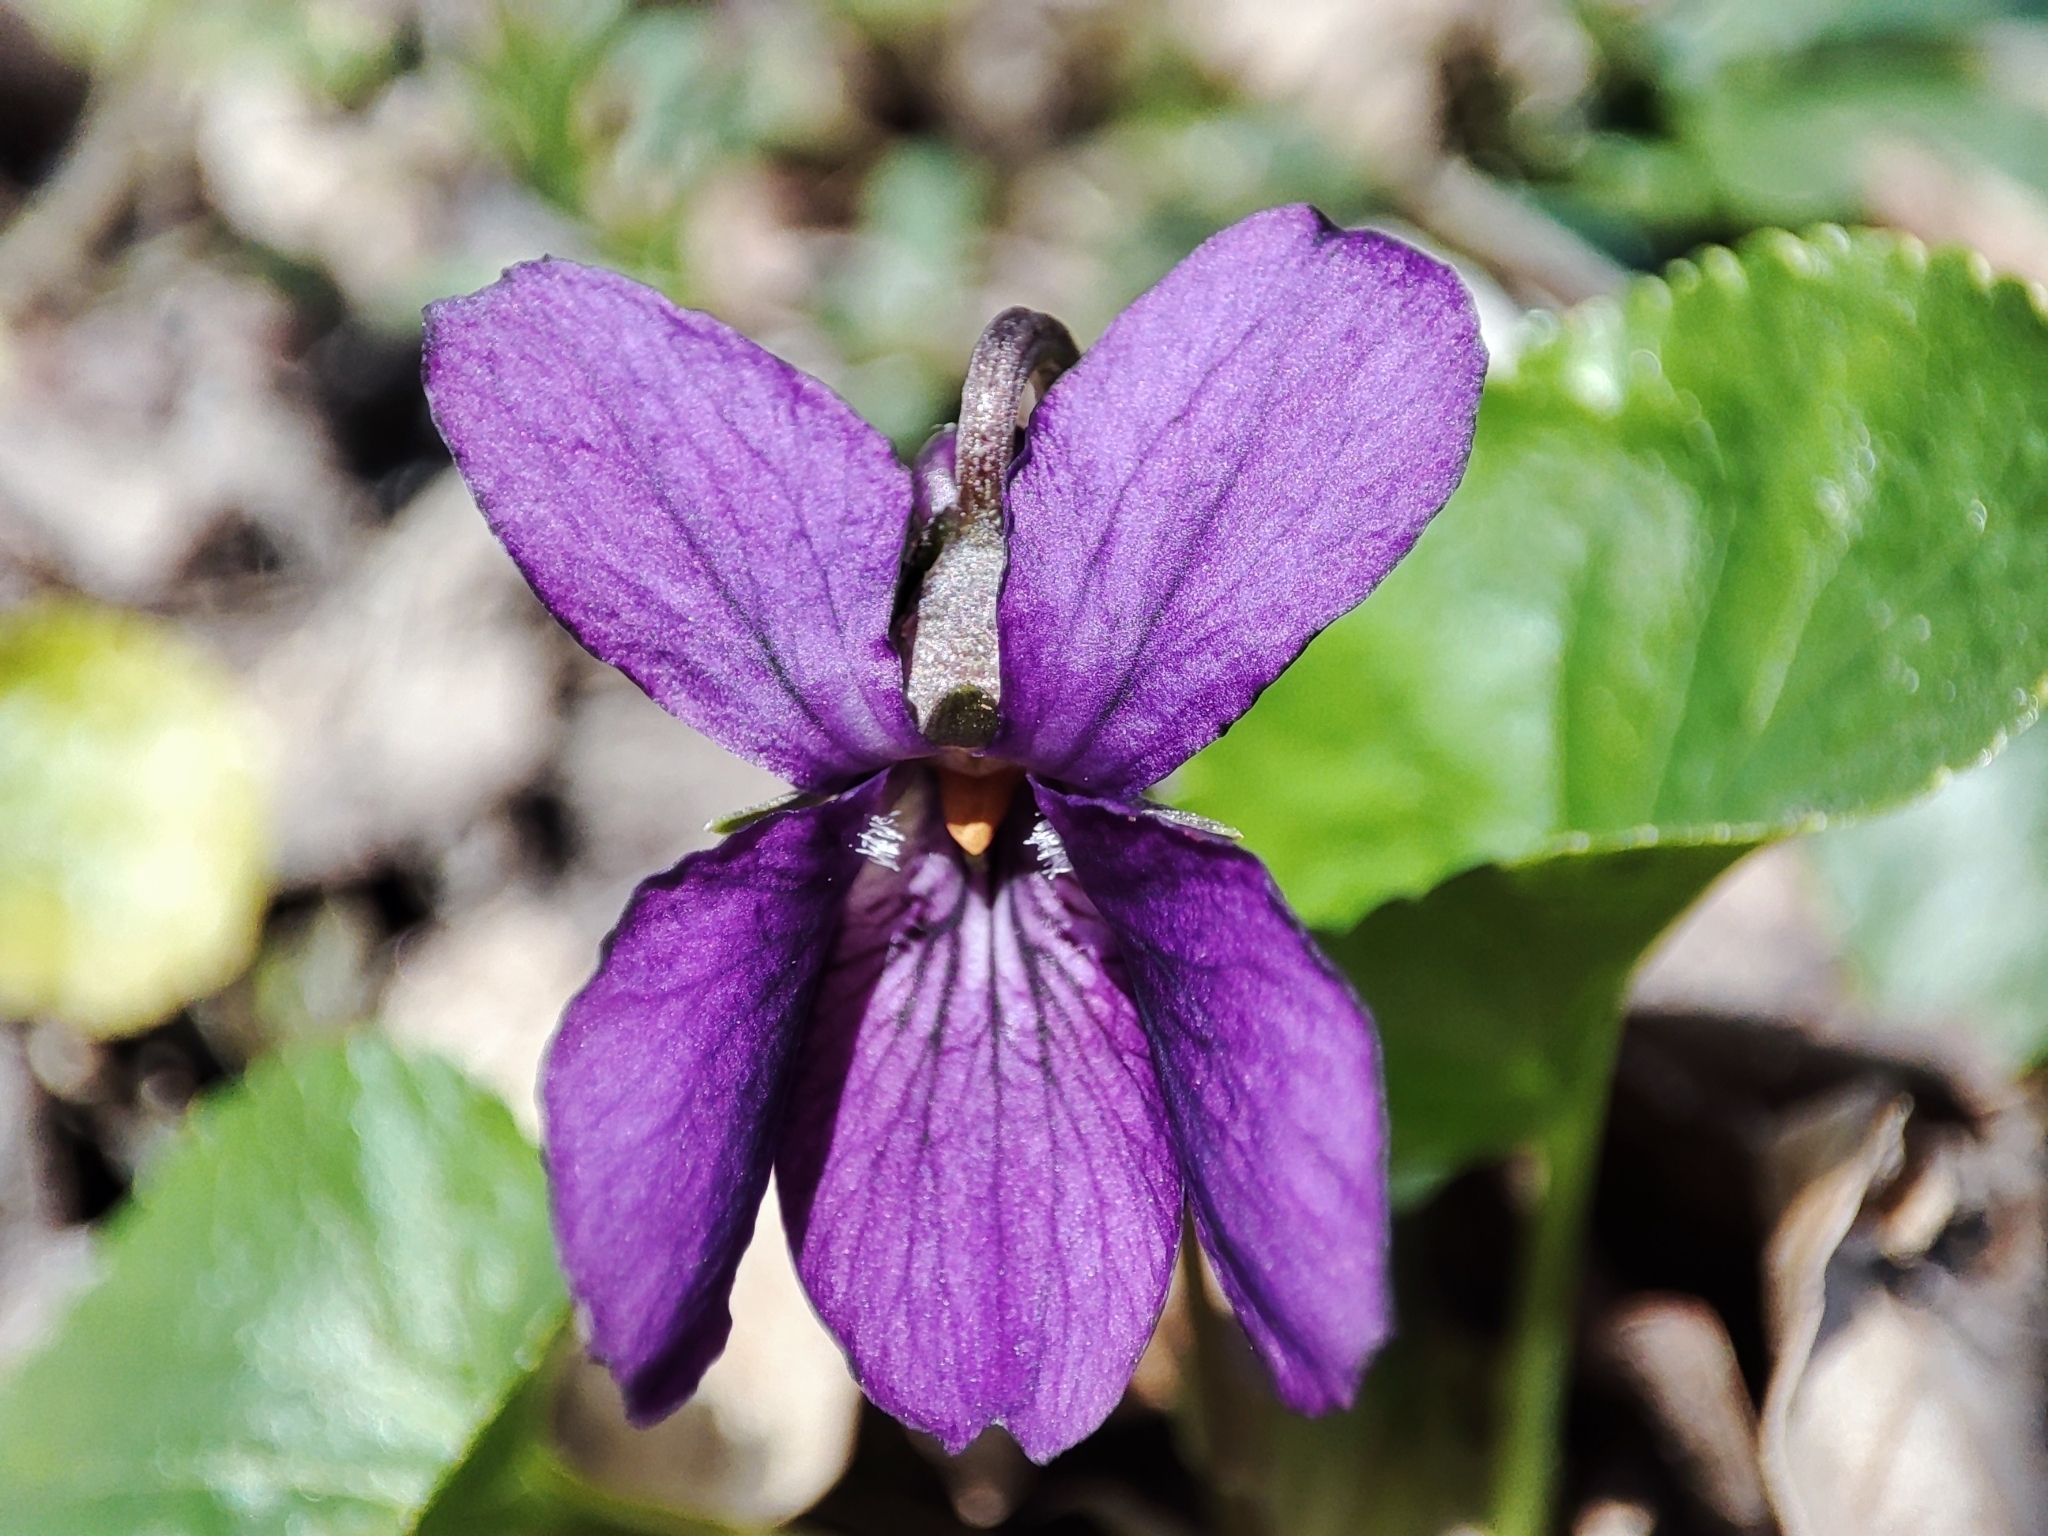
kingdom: Plantae
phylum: Tracheophyta
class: Magnoliopsida
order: Malpighiales
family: Violaceae
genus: Viola
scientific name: Viola odorata
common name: Sweet violet
